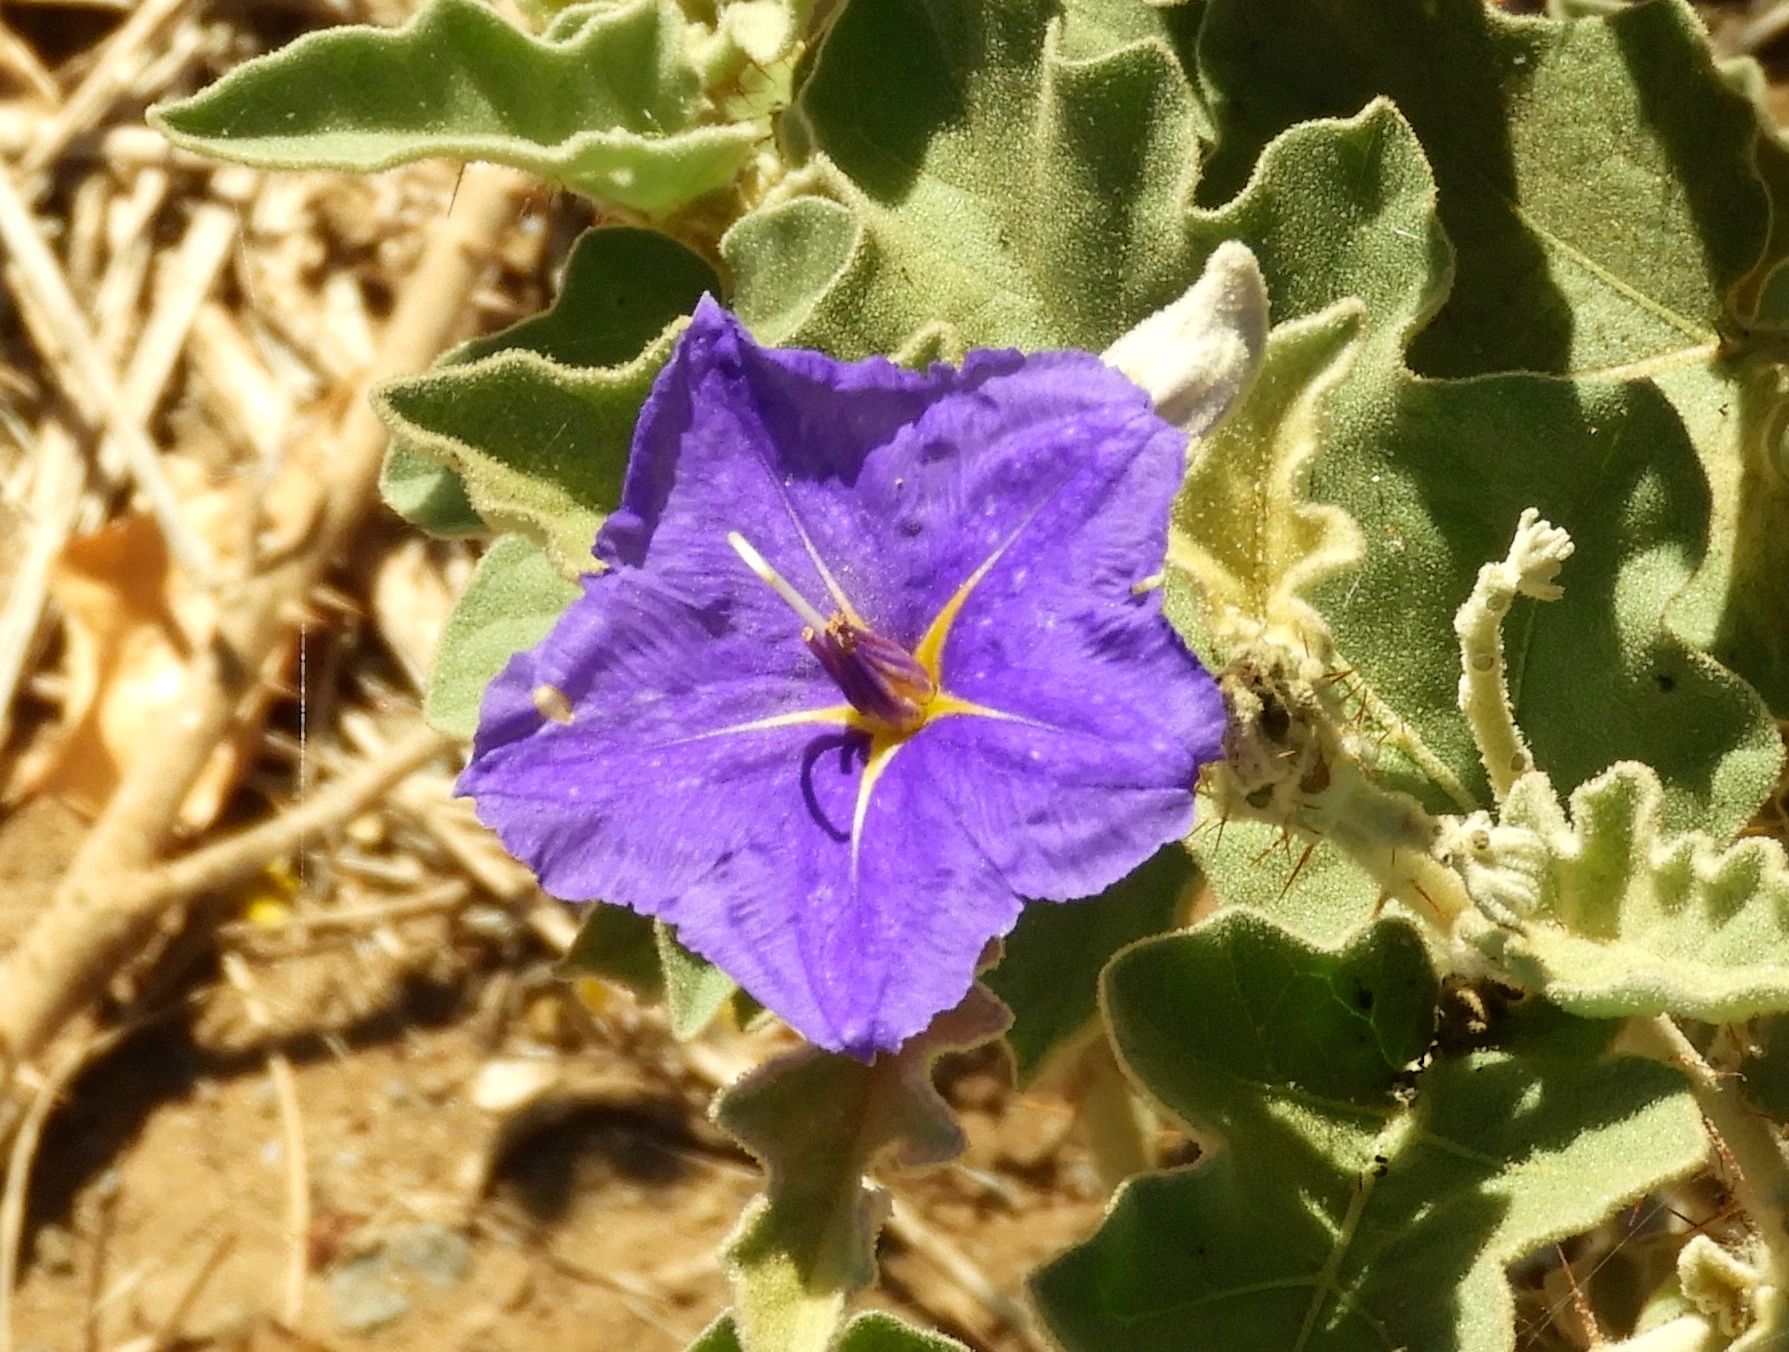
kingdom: Plantae
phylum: Tracheophyta
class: Magnoliopsida
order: Solanales
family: Solanaceae
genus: Solanum
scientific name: Solanum houstonii
